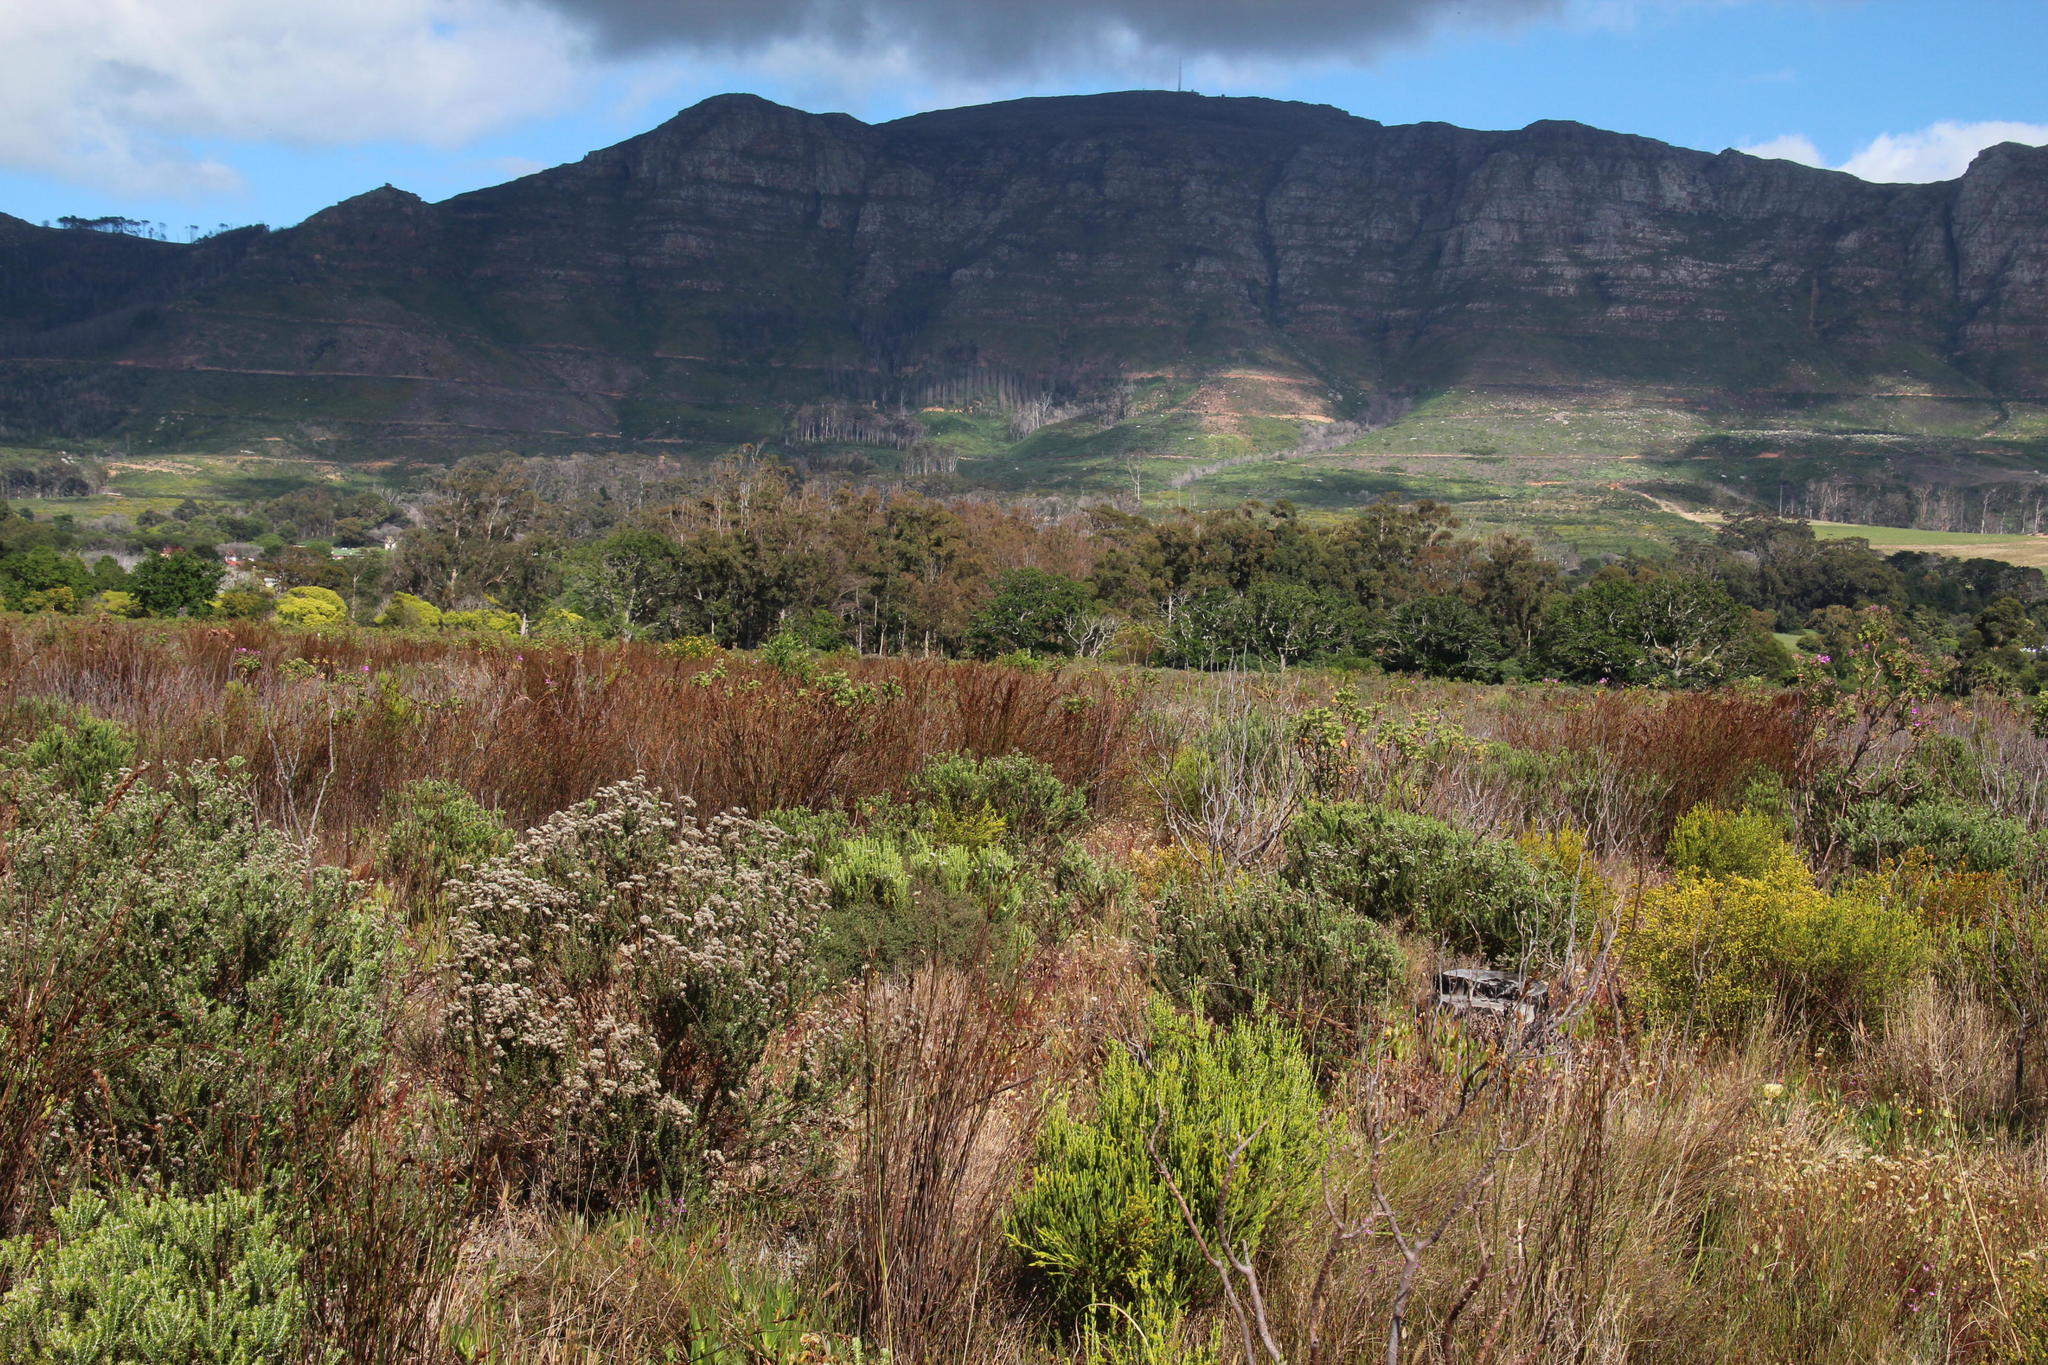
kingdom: Plantae
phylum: Tracheophyta
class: Liliopsida
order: Poales
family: Restionaceae
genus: Restio
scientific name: Restio bifurcus
